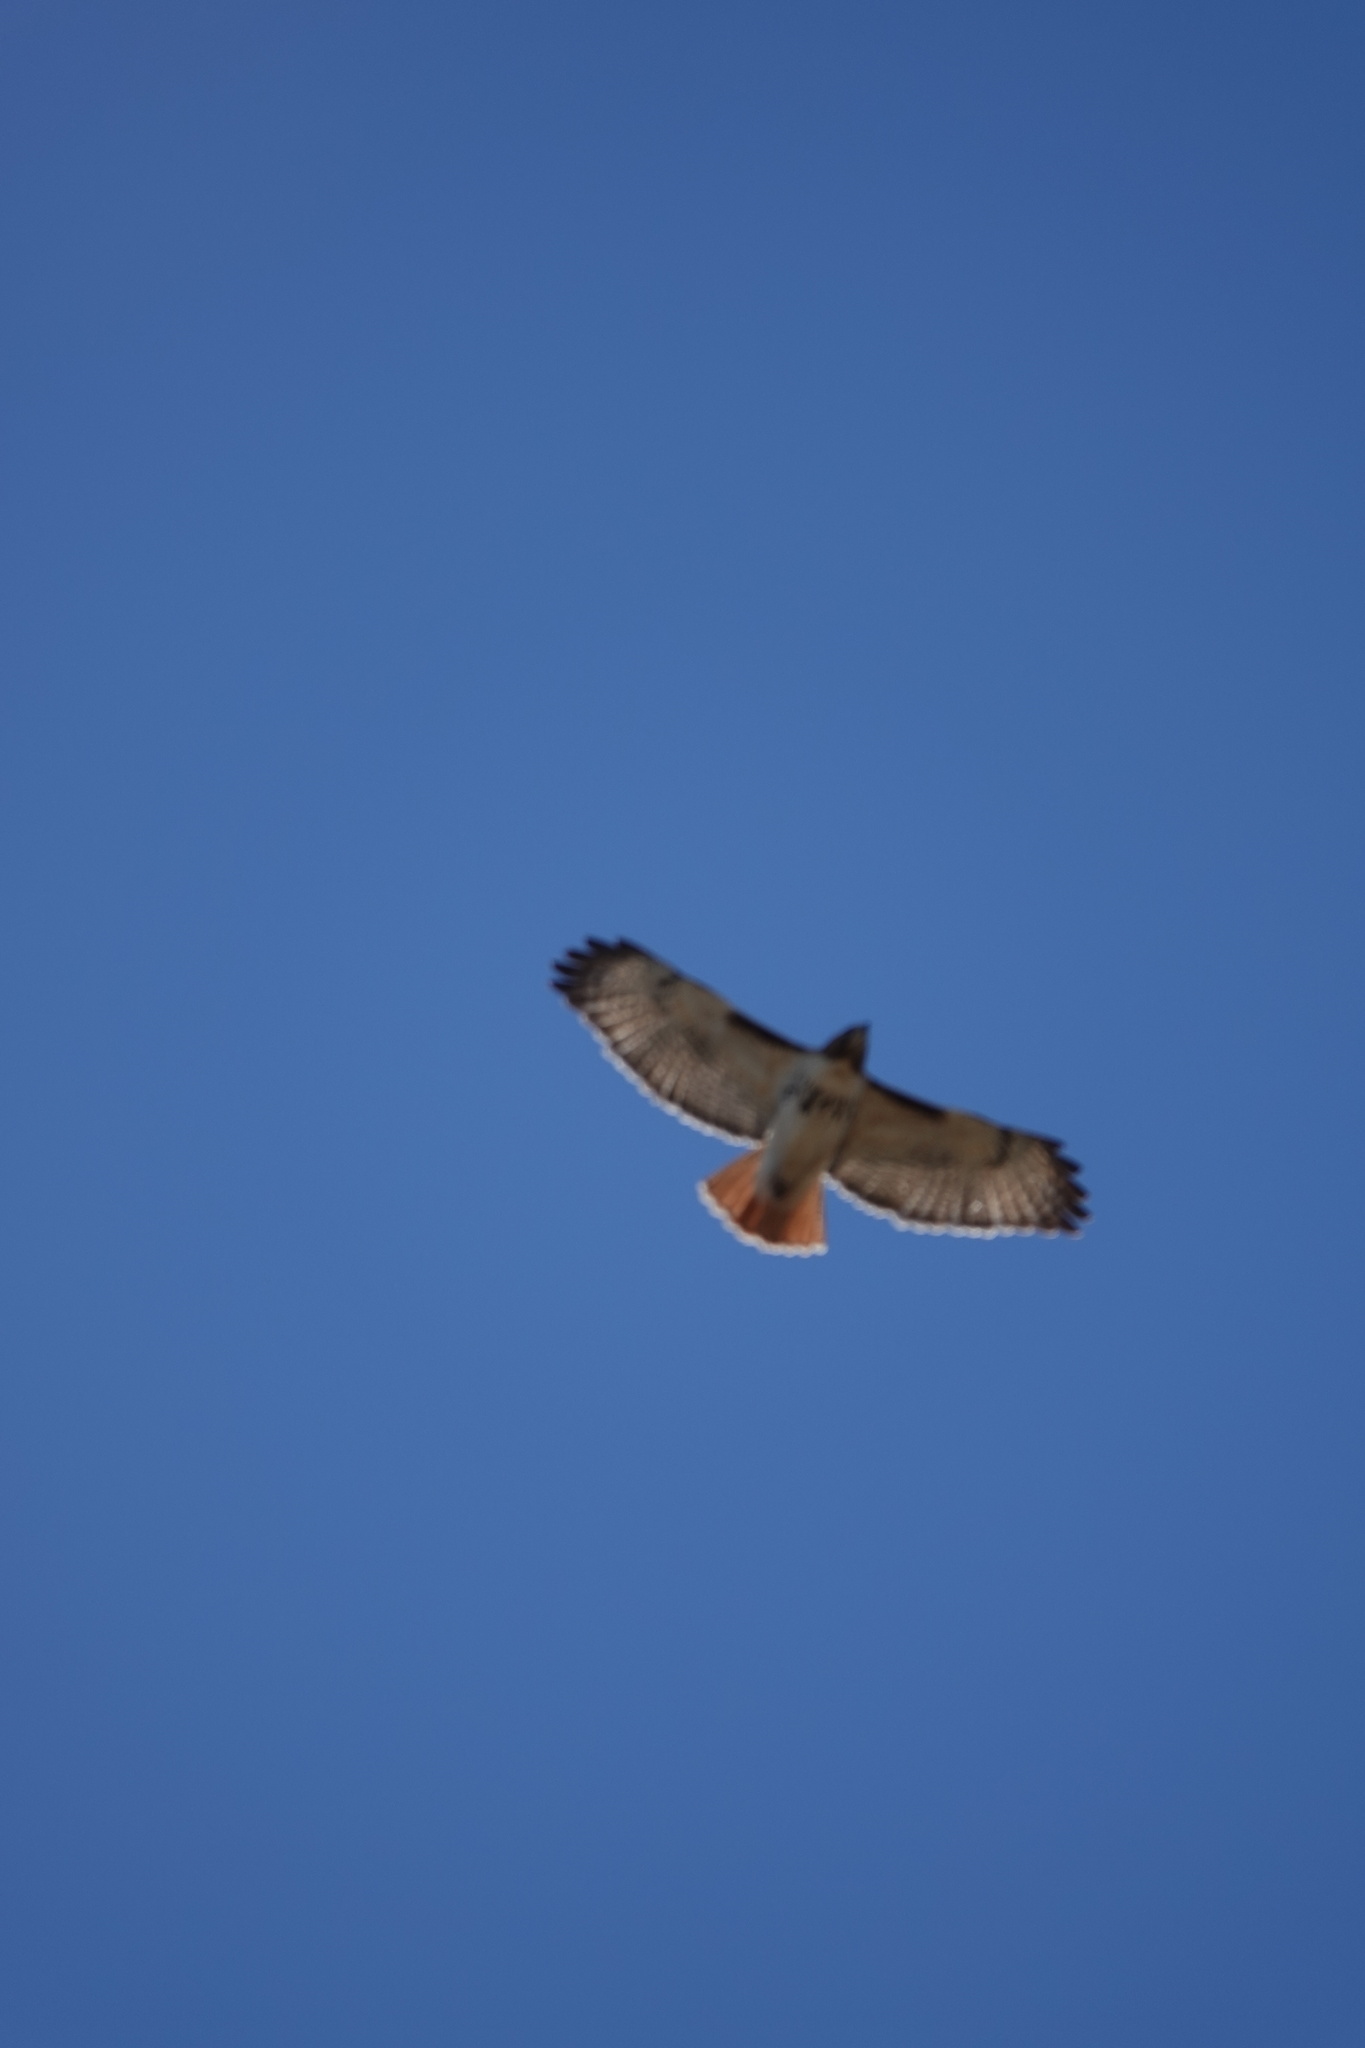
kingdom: Animalia
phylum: Chordata
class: Aves
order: Accipitriformes
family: Accipitridae
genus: Buteo
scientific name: Buteo jamaicensis
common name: Red-tailed hawk
